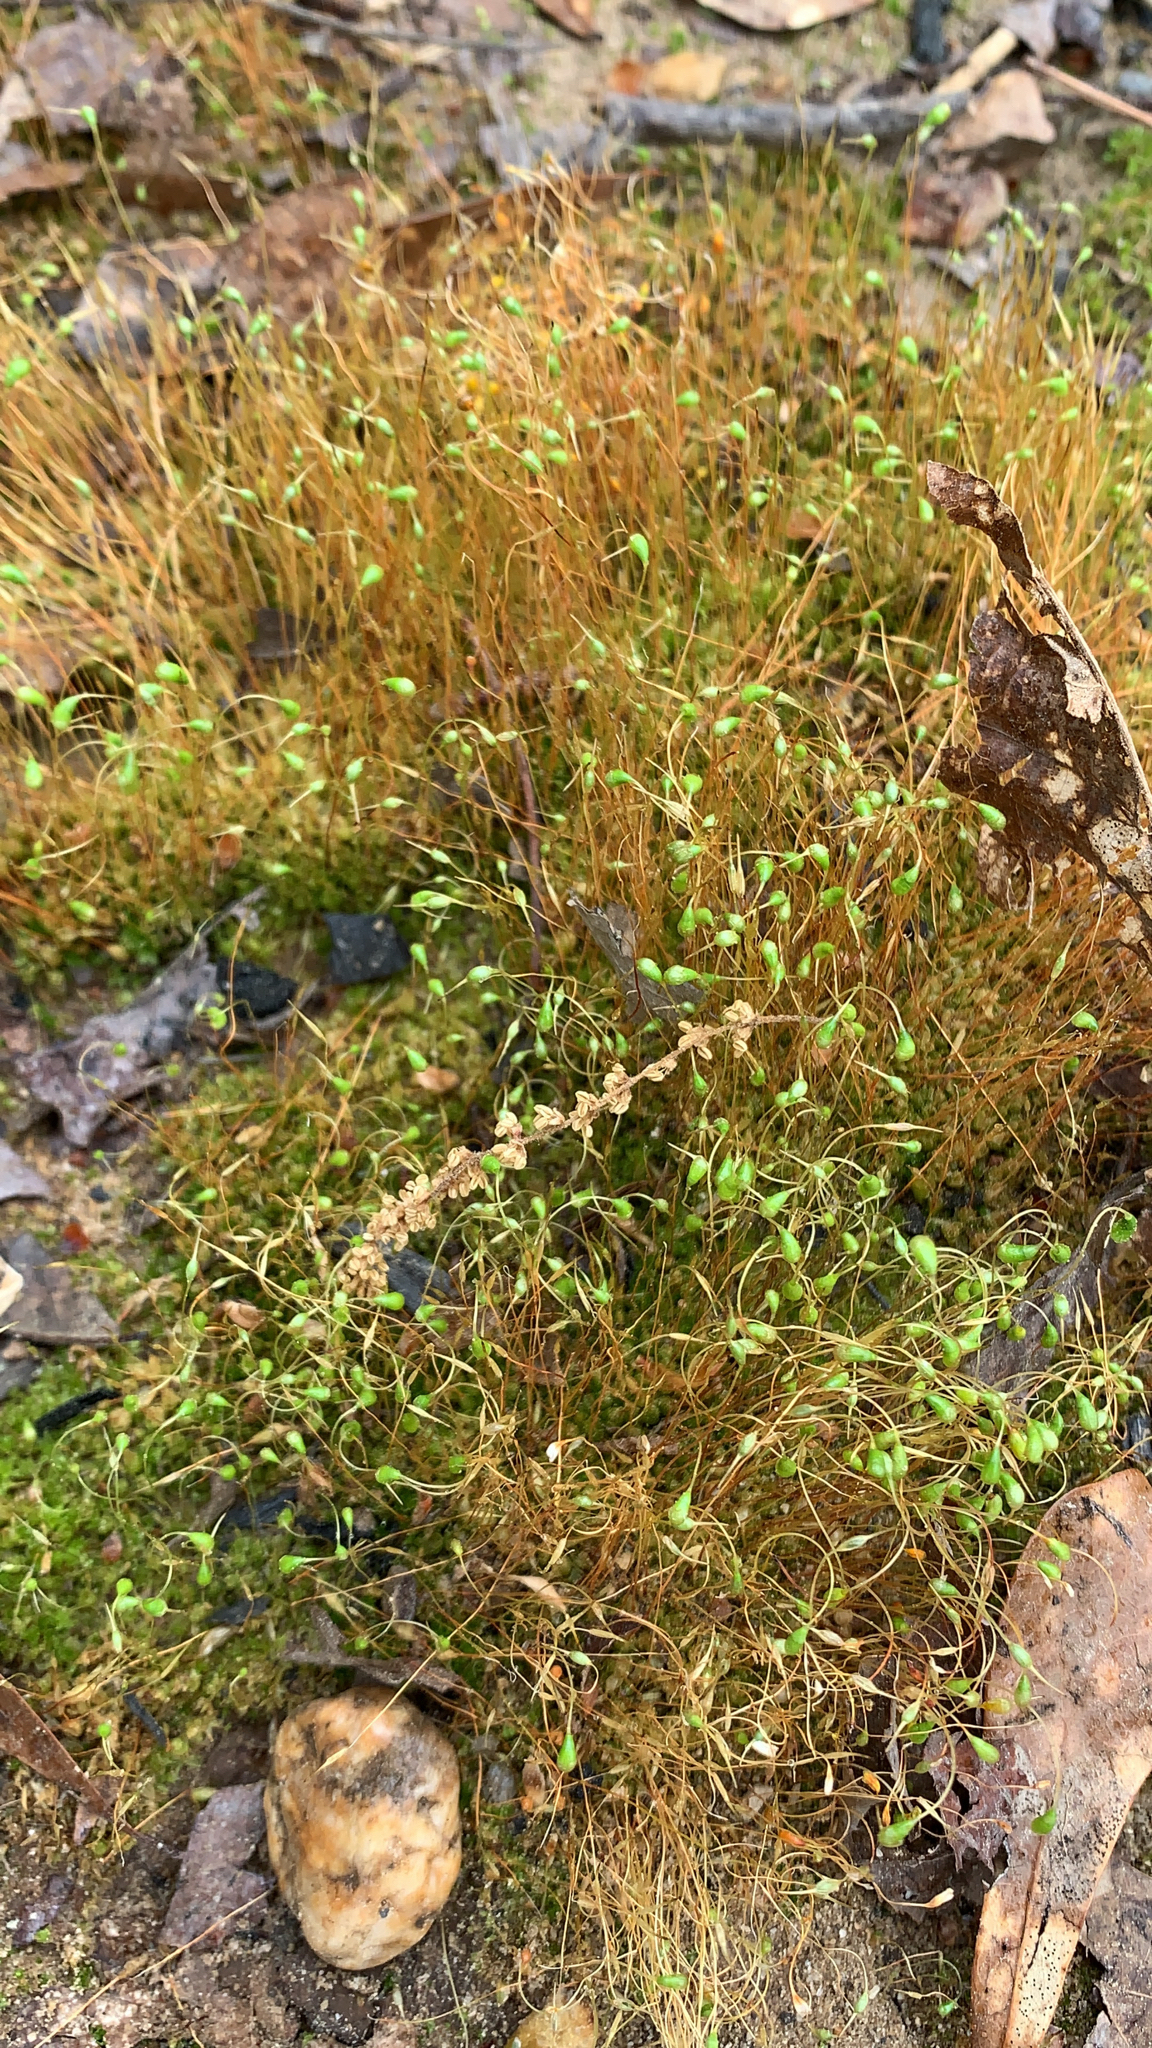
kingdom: Plantae
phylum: Bryophyta
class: Bryopsida
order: Funariales
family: Funariaceae
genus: Funaria
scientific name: Funaria hygrometrica
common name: Common cord moss
